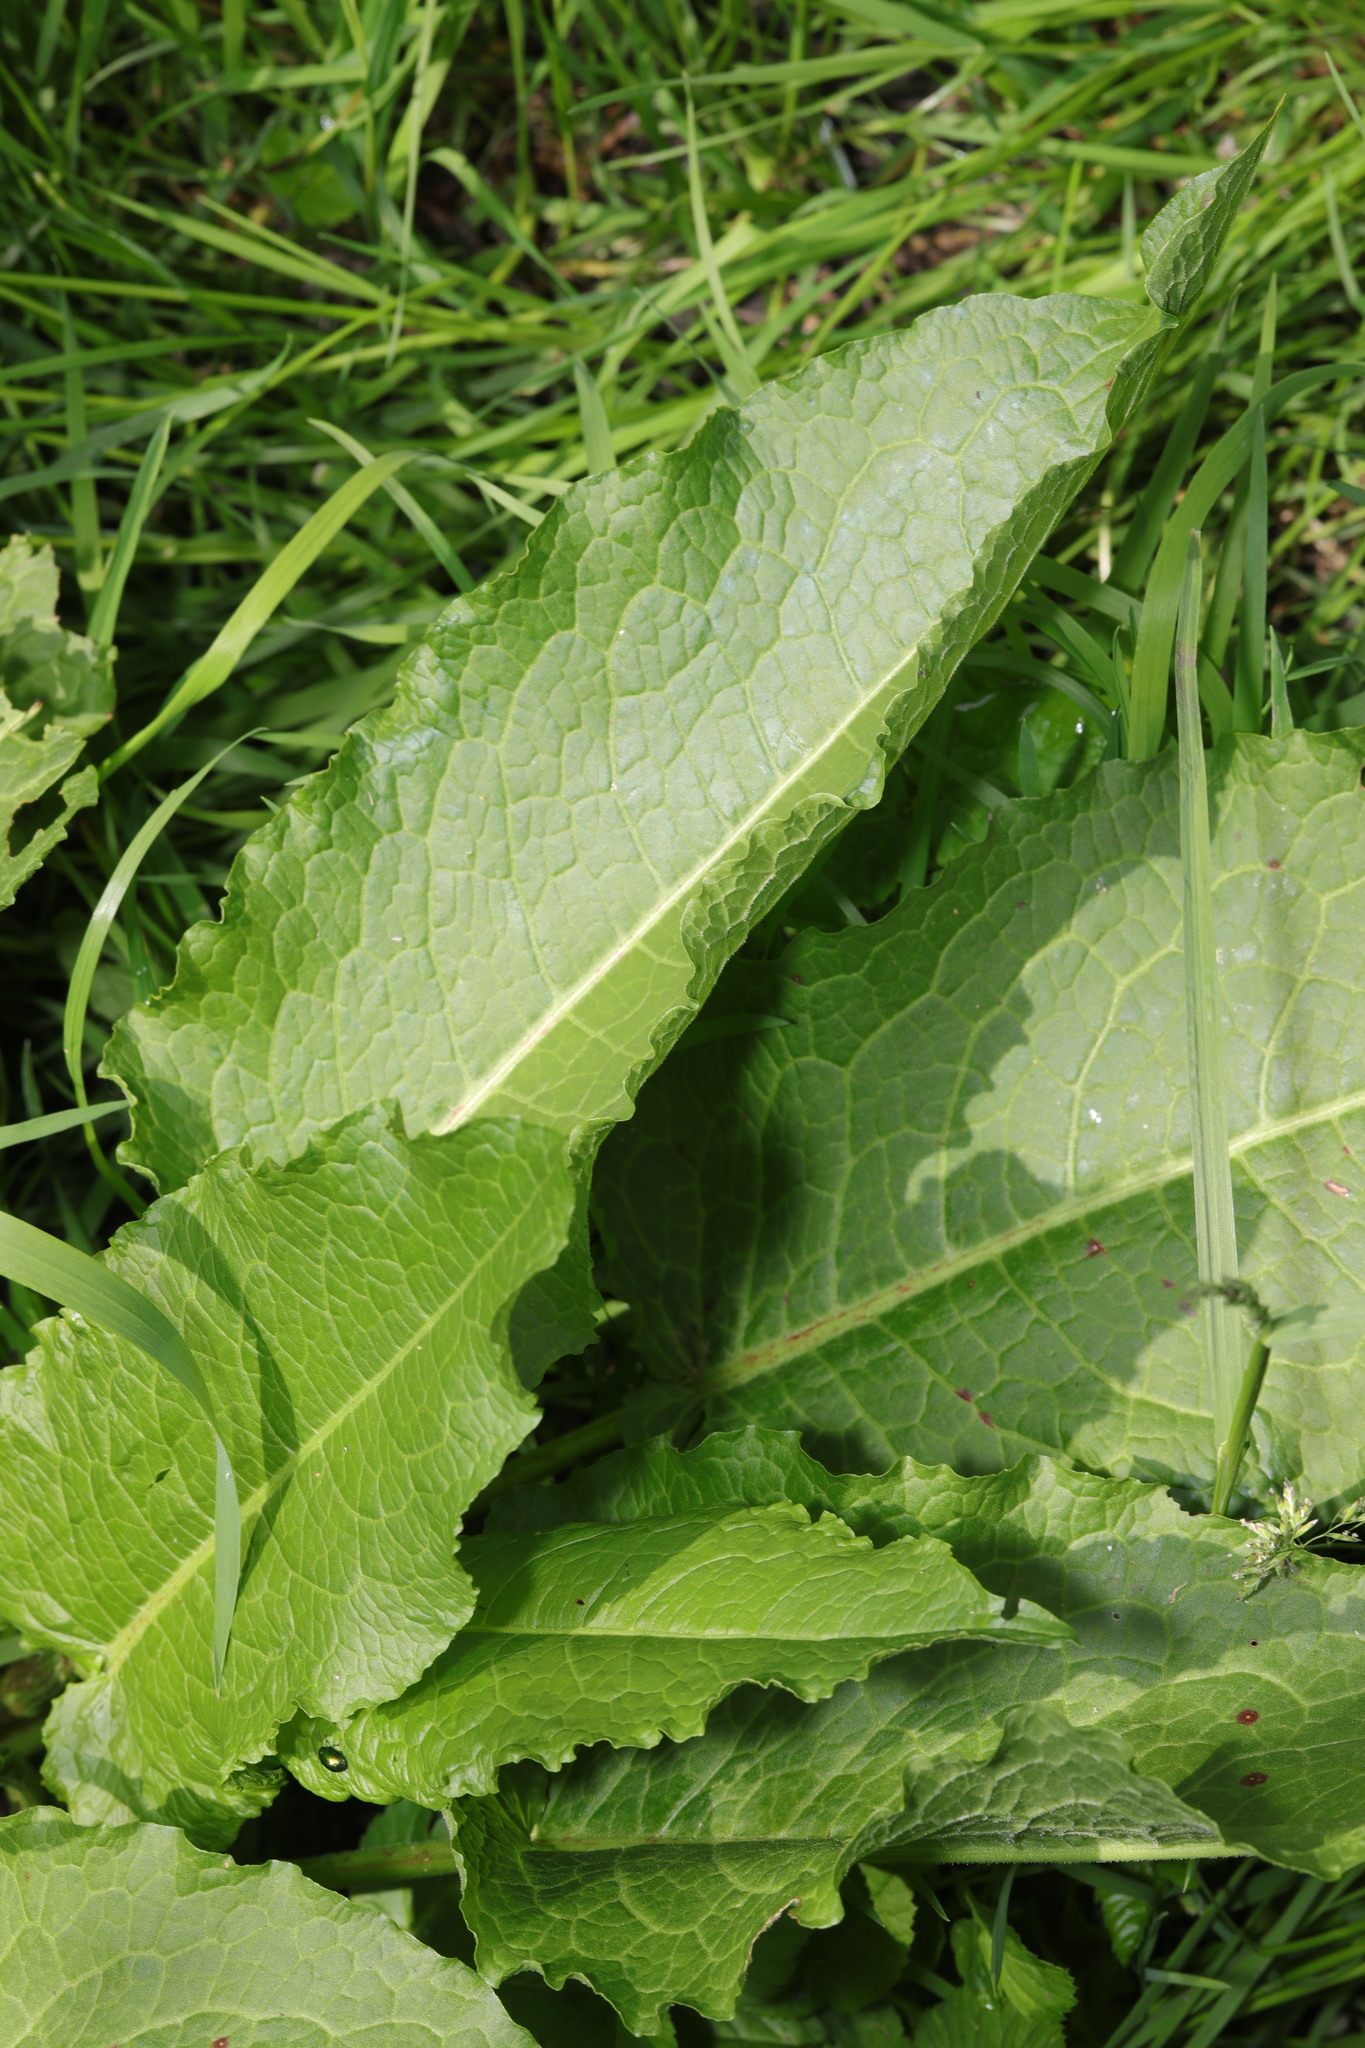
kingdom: Plantae
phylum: Tracheophyta
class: Magnoliopsida
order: Caryophyllales
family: Polygonaceae
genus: Rumex
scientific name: Rumex obtusifolius
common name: Bitter dock
